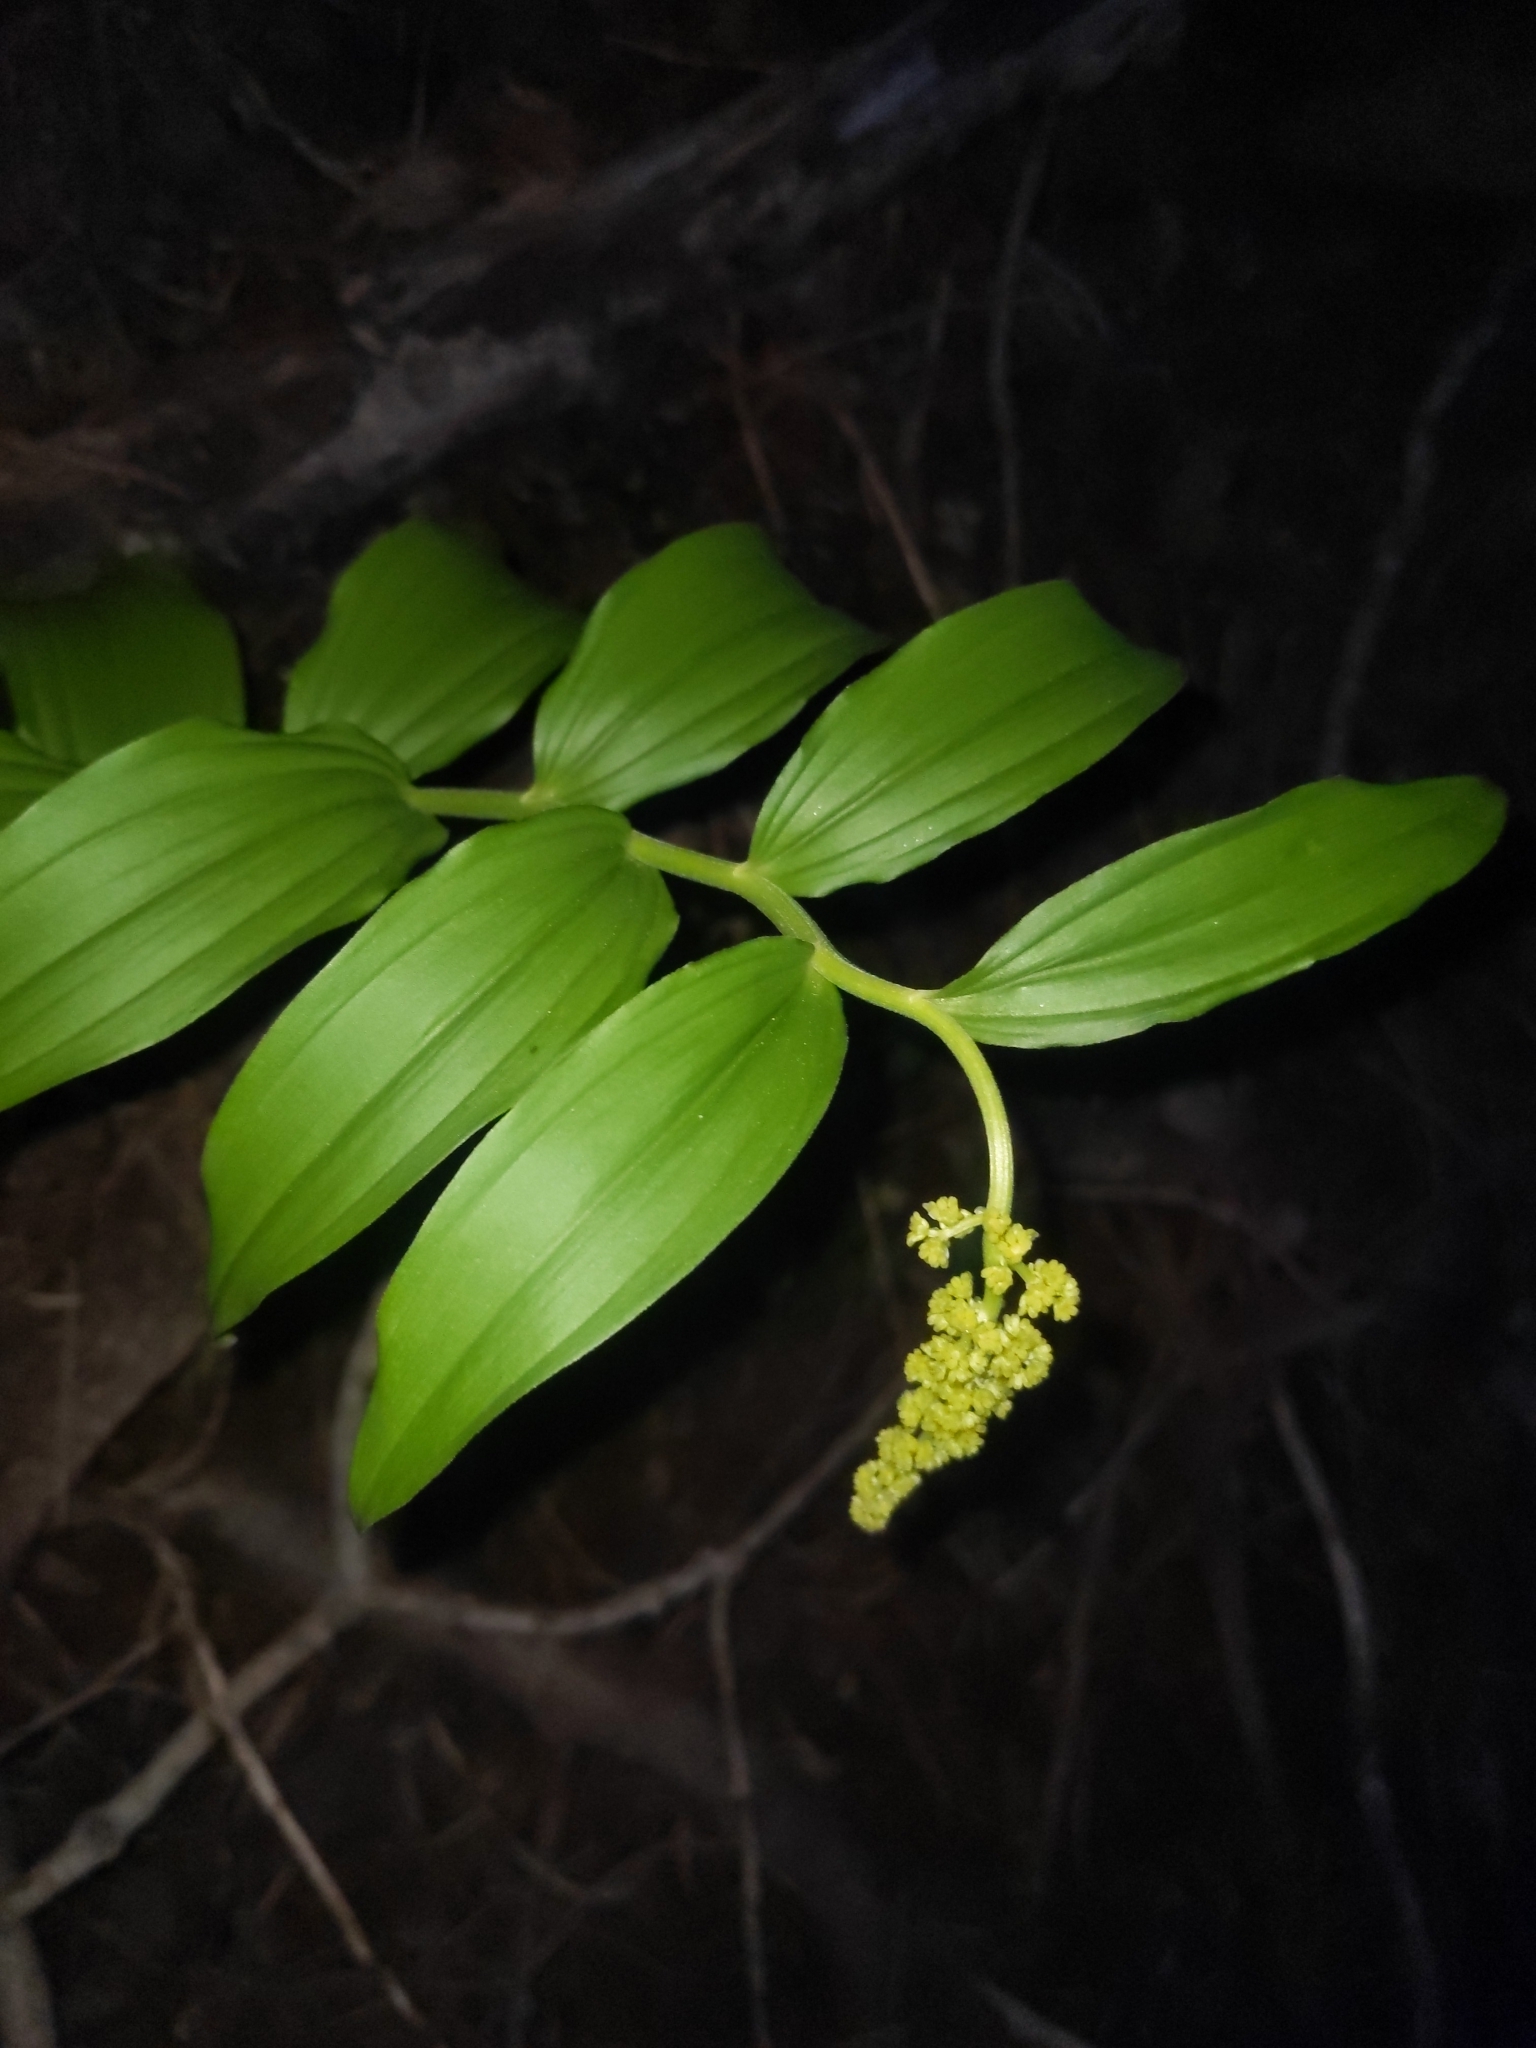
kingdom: Plantae
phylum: Tracheophyta
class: Liliopsida
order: Asparagales
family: Asparagaceae
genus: Maianthemum
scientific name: Maianthemum racemosum
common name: False spikenard
